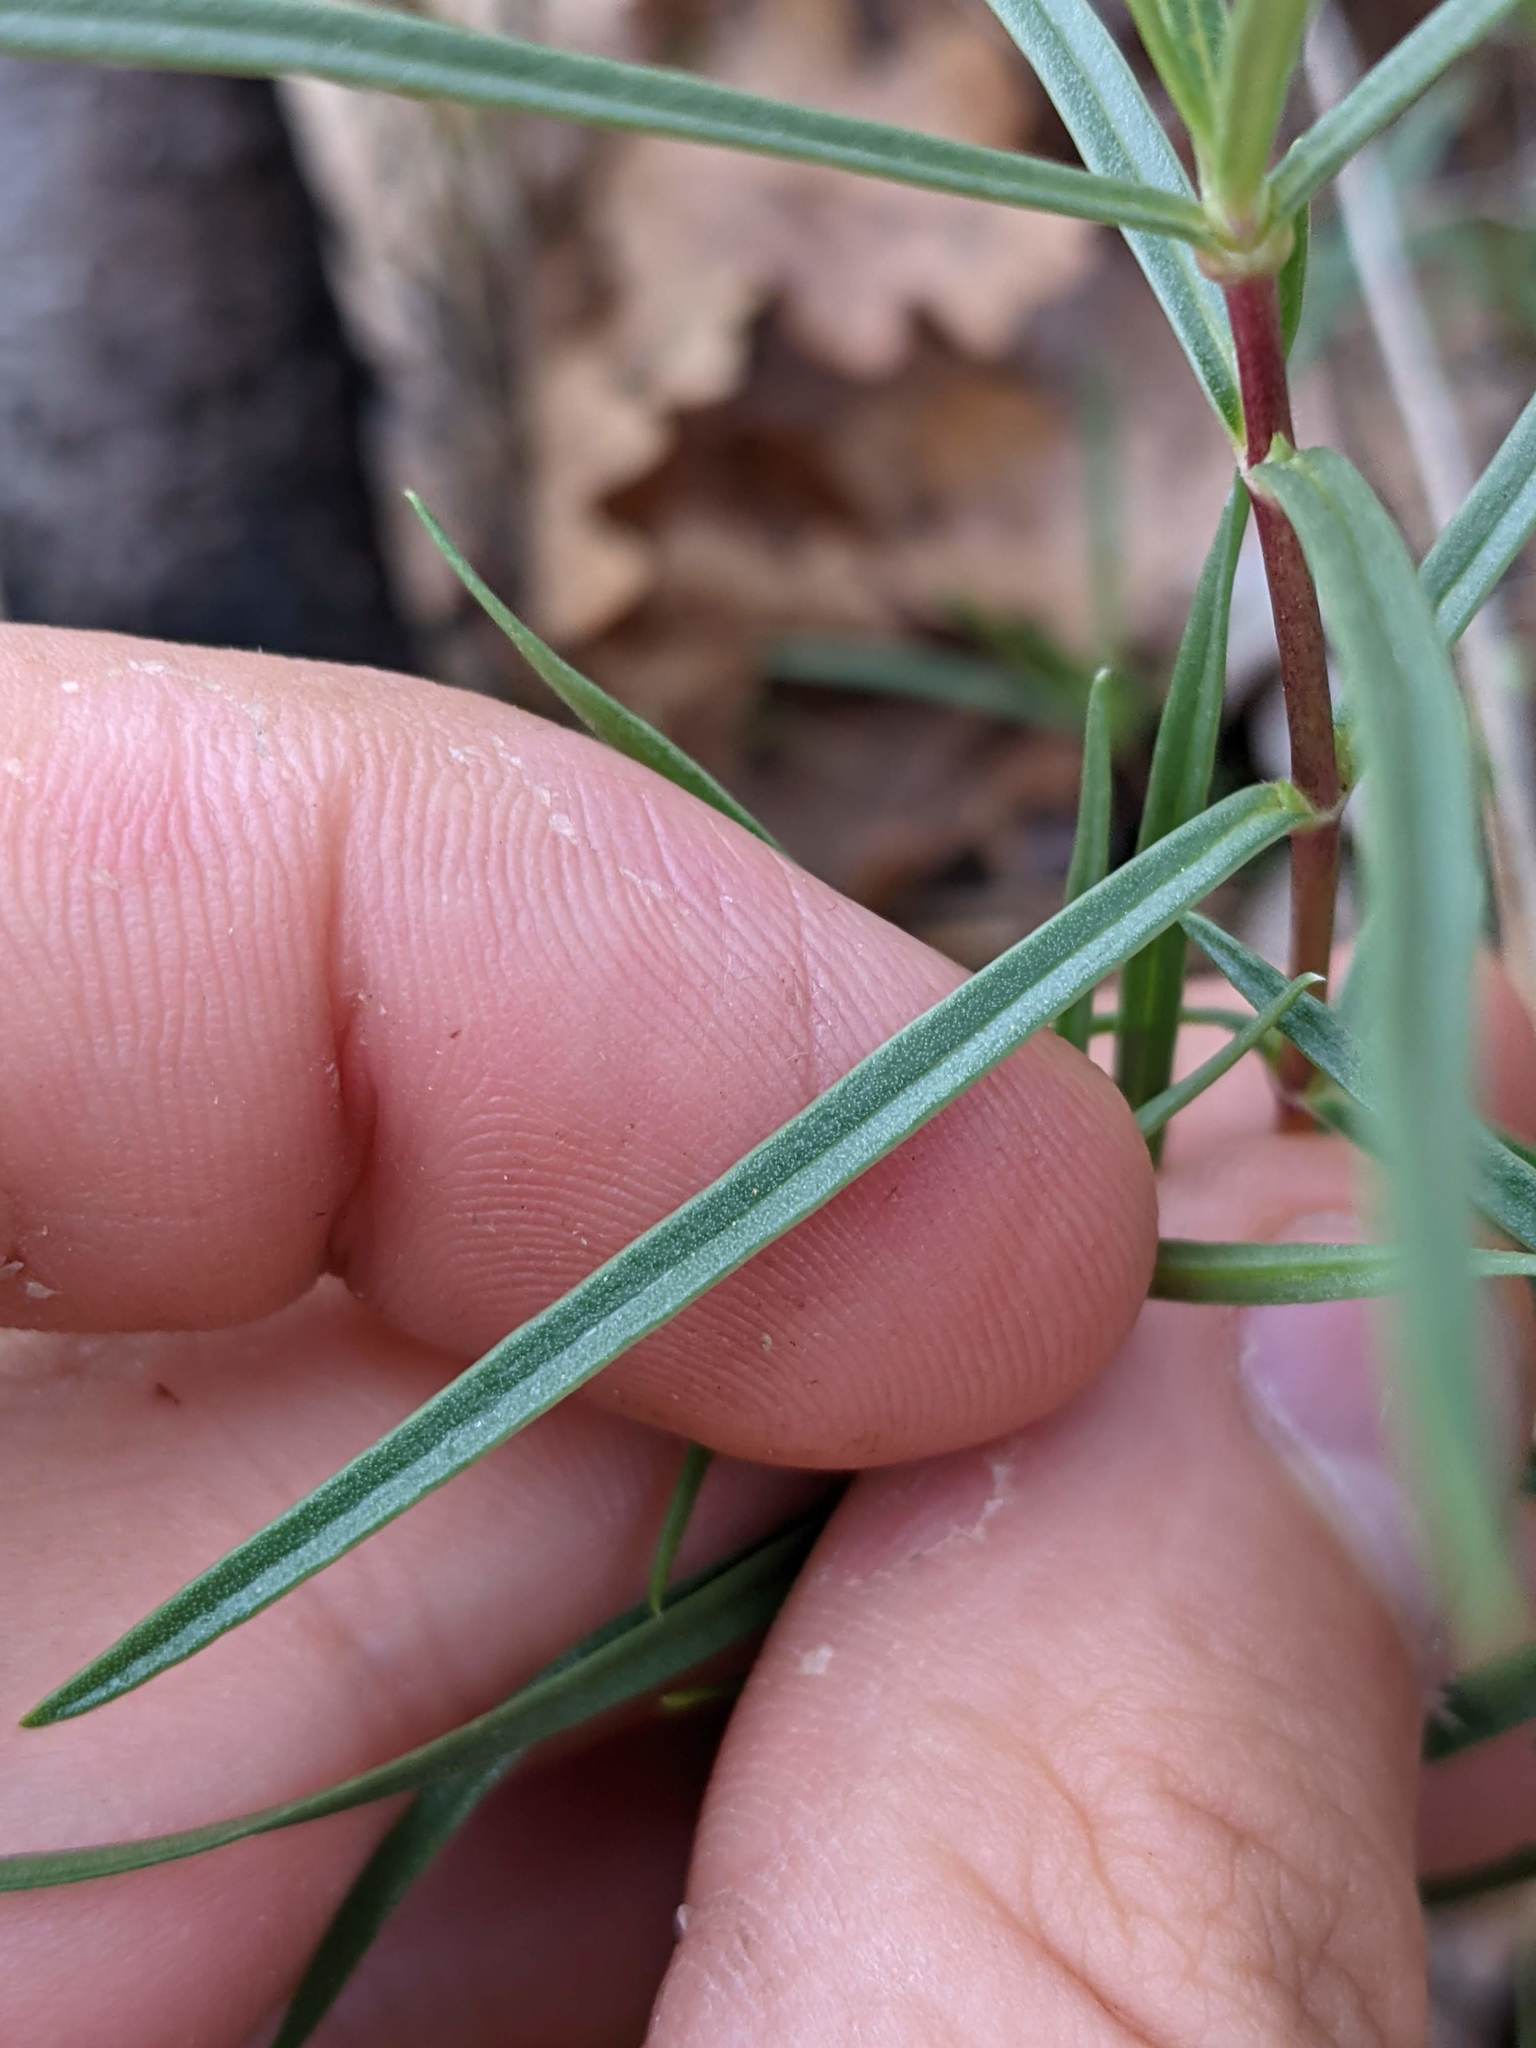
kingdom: Plantae
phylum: Tracheophyta
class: Magnoliopsida
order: Ericales
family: Polemoniaceae
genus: Phlox
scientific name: Phlox speciosa
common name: Bush phlox
